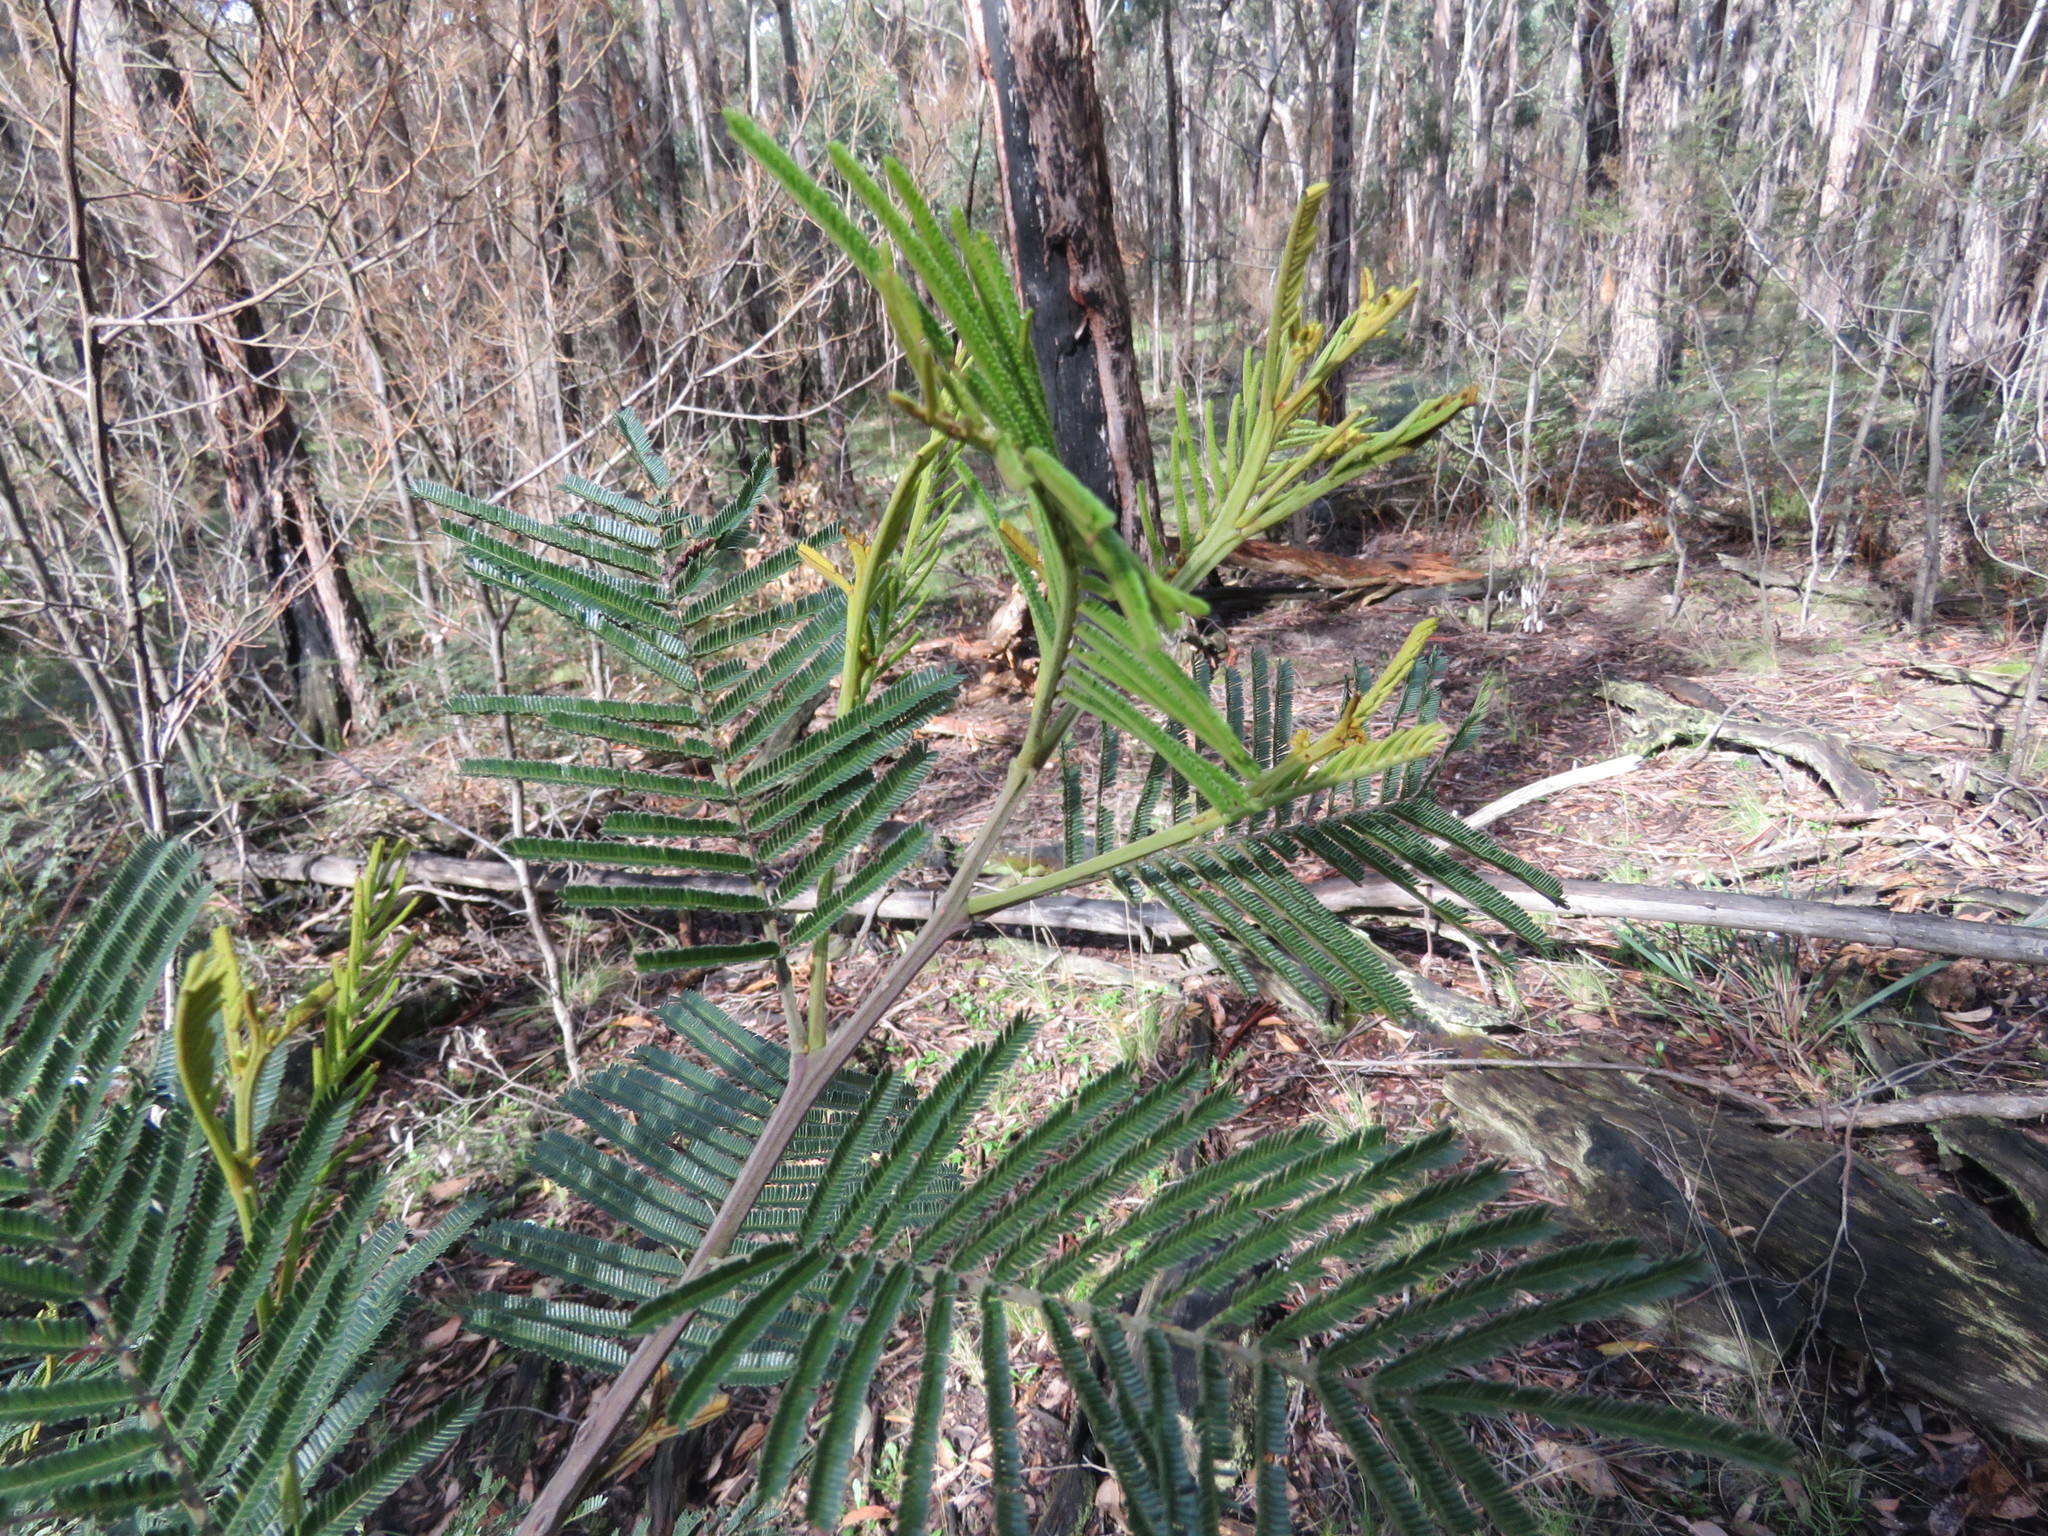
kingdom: Plantae
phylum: Tracheophyta
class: Magnoliopsida
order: Fabales
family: Fabaceae
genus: Acacia
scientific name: Acacia mearnsii
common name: Black wattle
